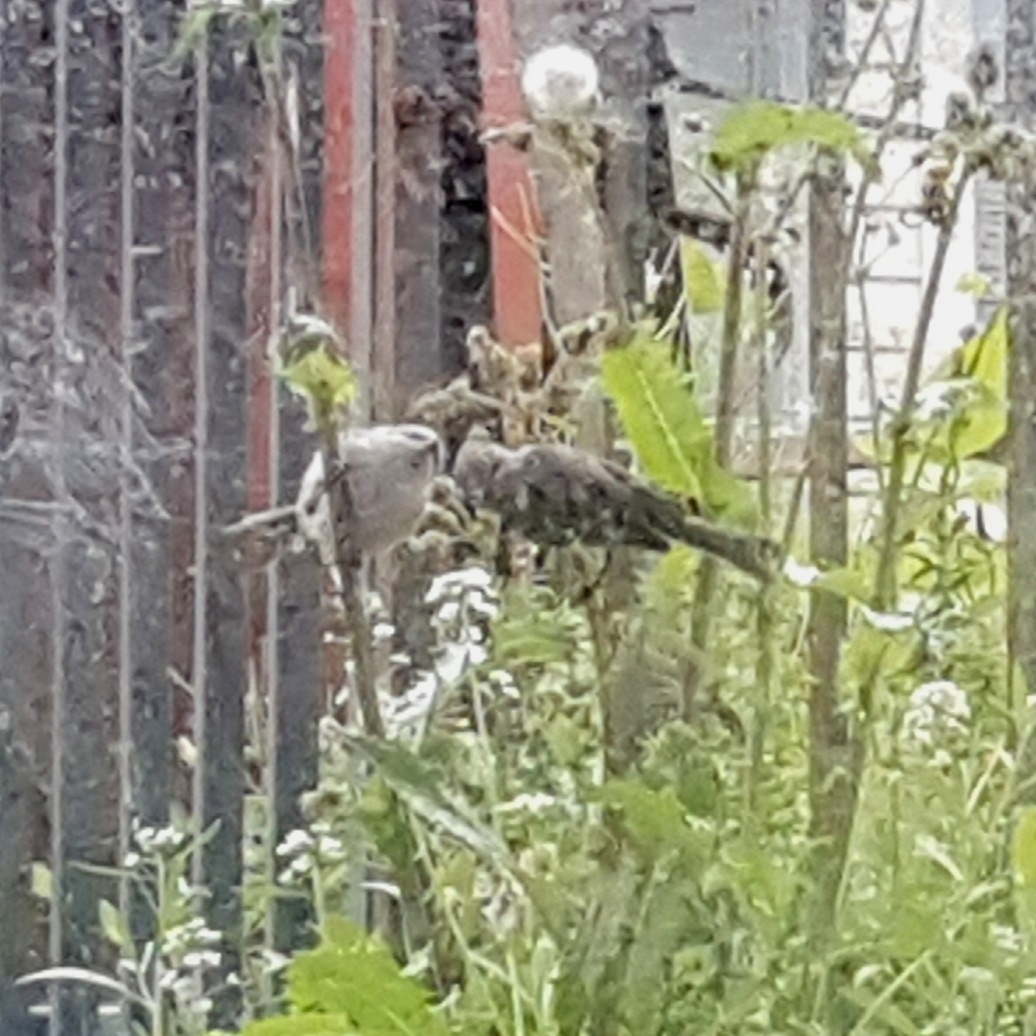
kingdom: Animalia
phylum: Chordata
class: Aves
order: Passeriformes
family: Aegithalidae
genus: Psaltriparus
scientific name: Psaltriparus minimus
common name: American bushtit
